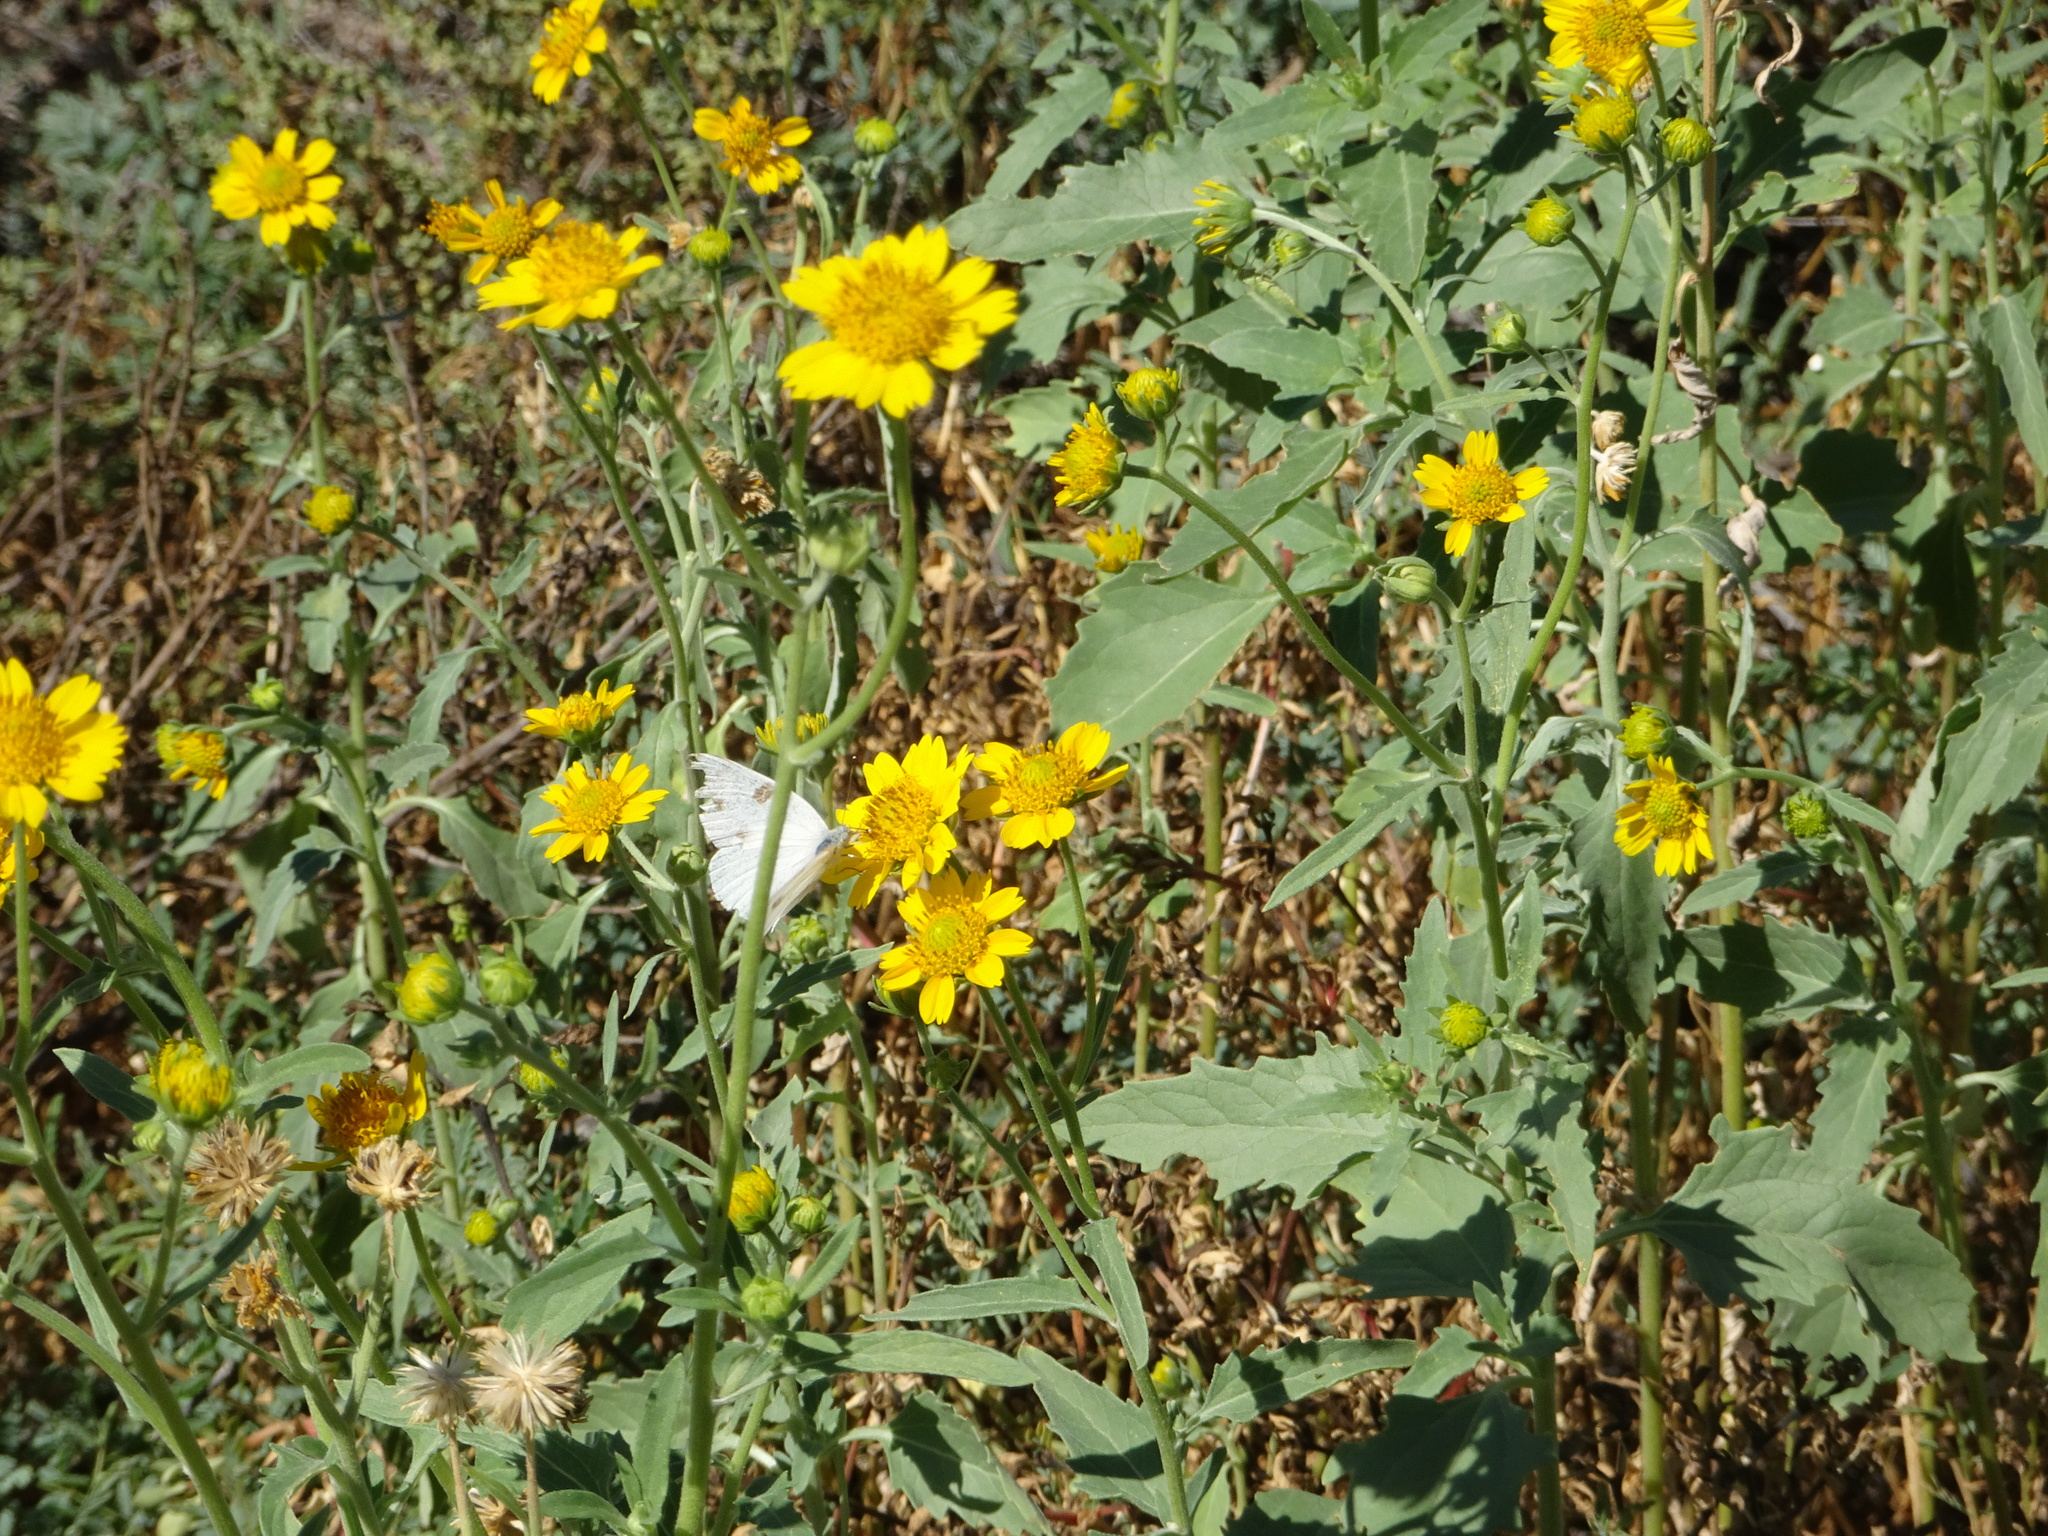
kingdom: Plantae
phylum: Tracheophyta
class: Magnoliopsida
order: Asterales
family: Asteraceae
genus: Verbesina
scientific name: Verbesina encelioides
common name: Golden crownbeard
